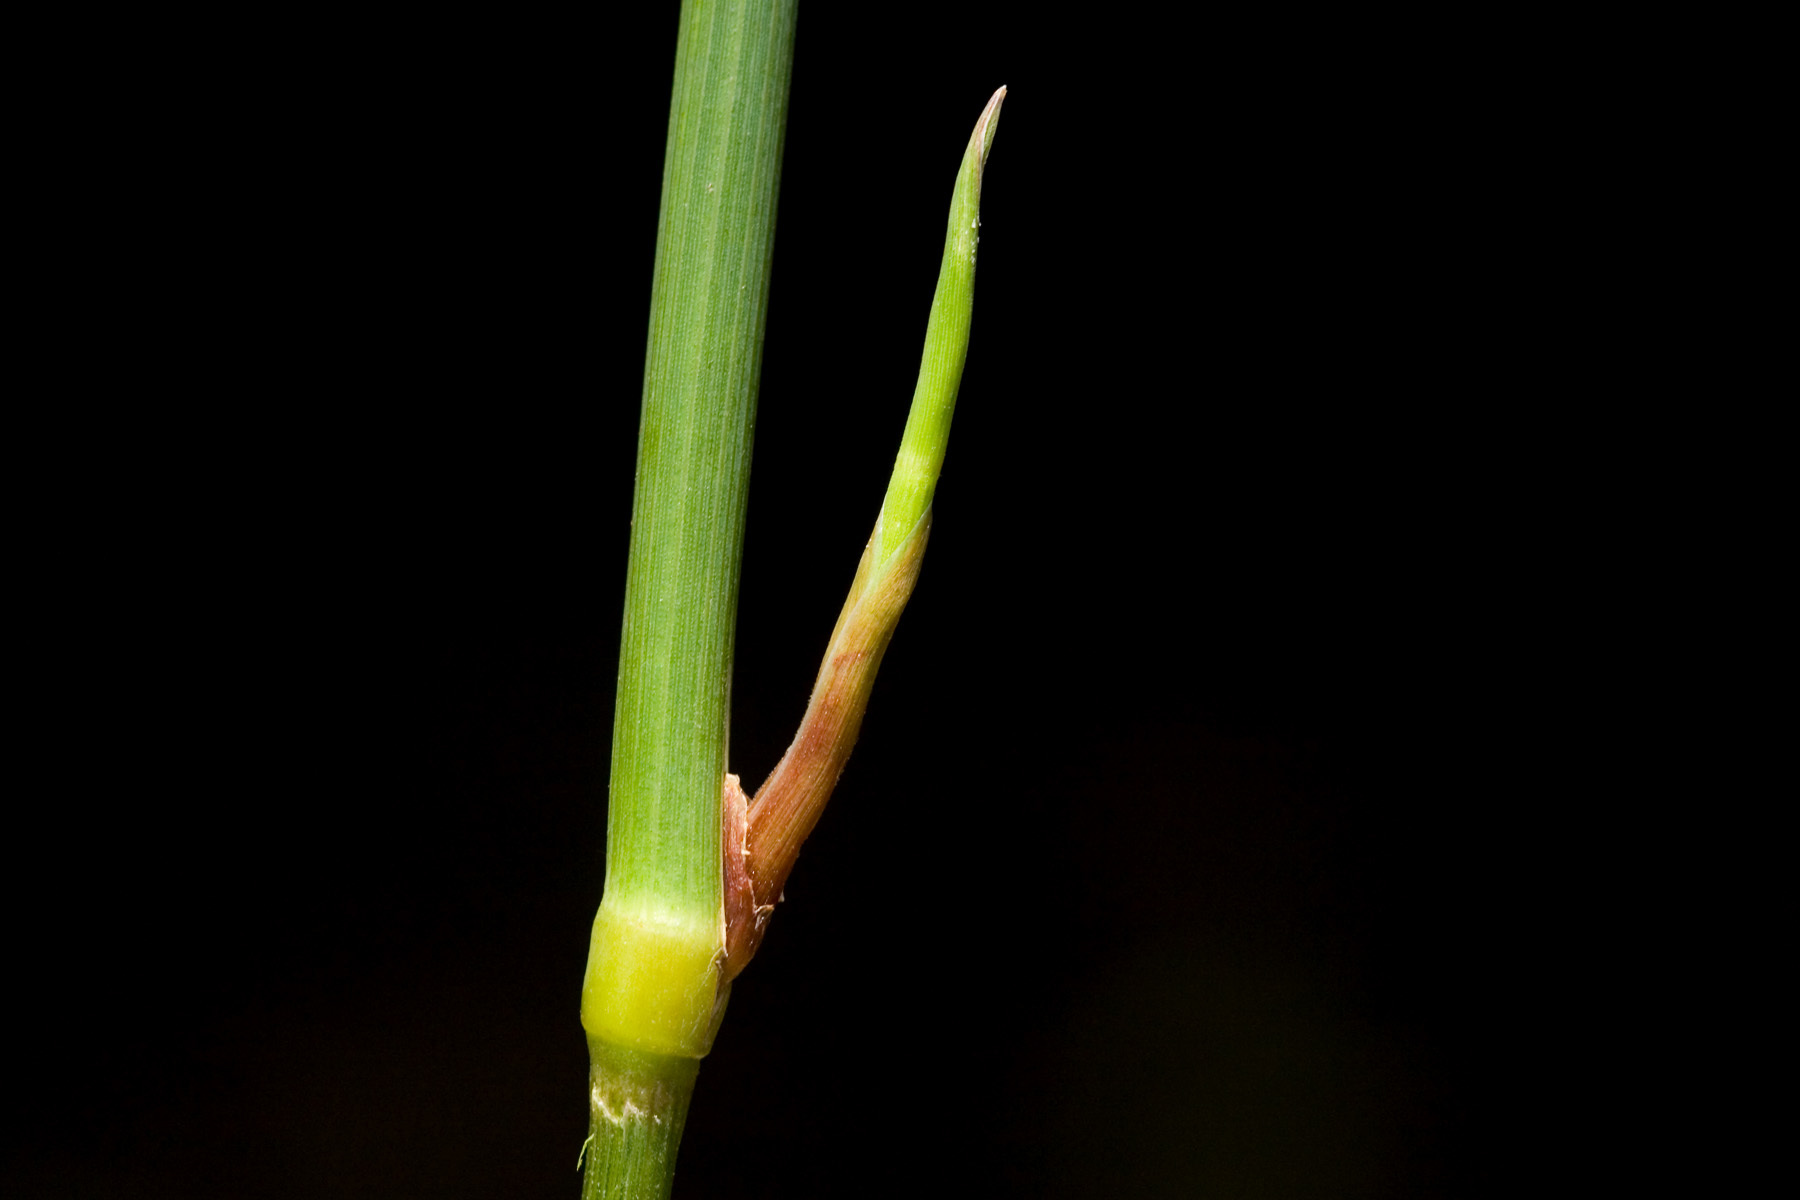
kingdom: Plantae
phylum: Tracheophyta
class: Liliopsida
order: Poales
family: Poaceae
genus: Phalaris
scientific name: Phalaris arundinacea
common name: Reed canary-grass
